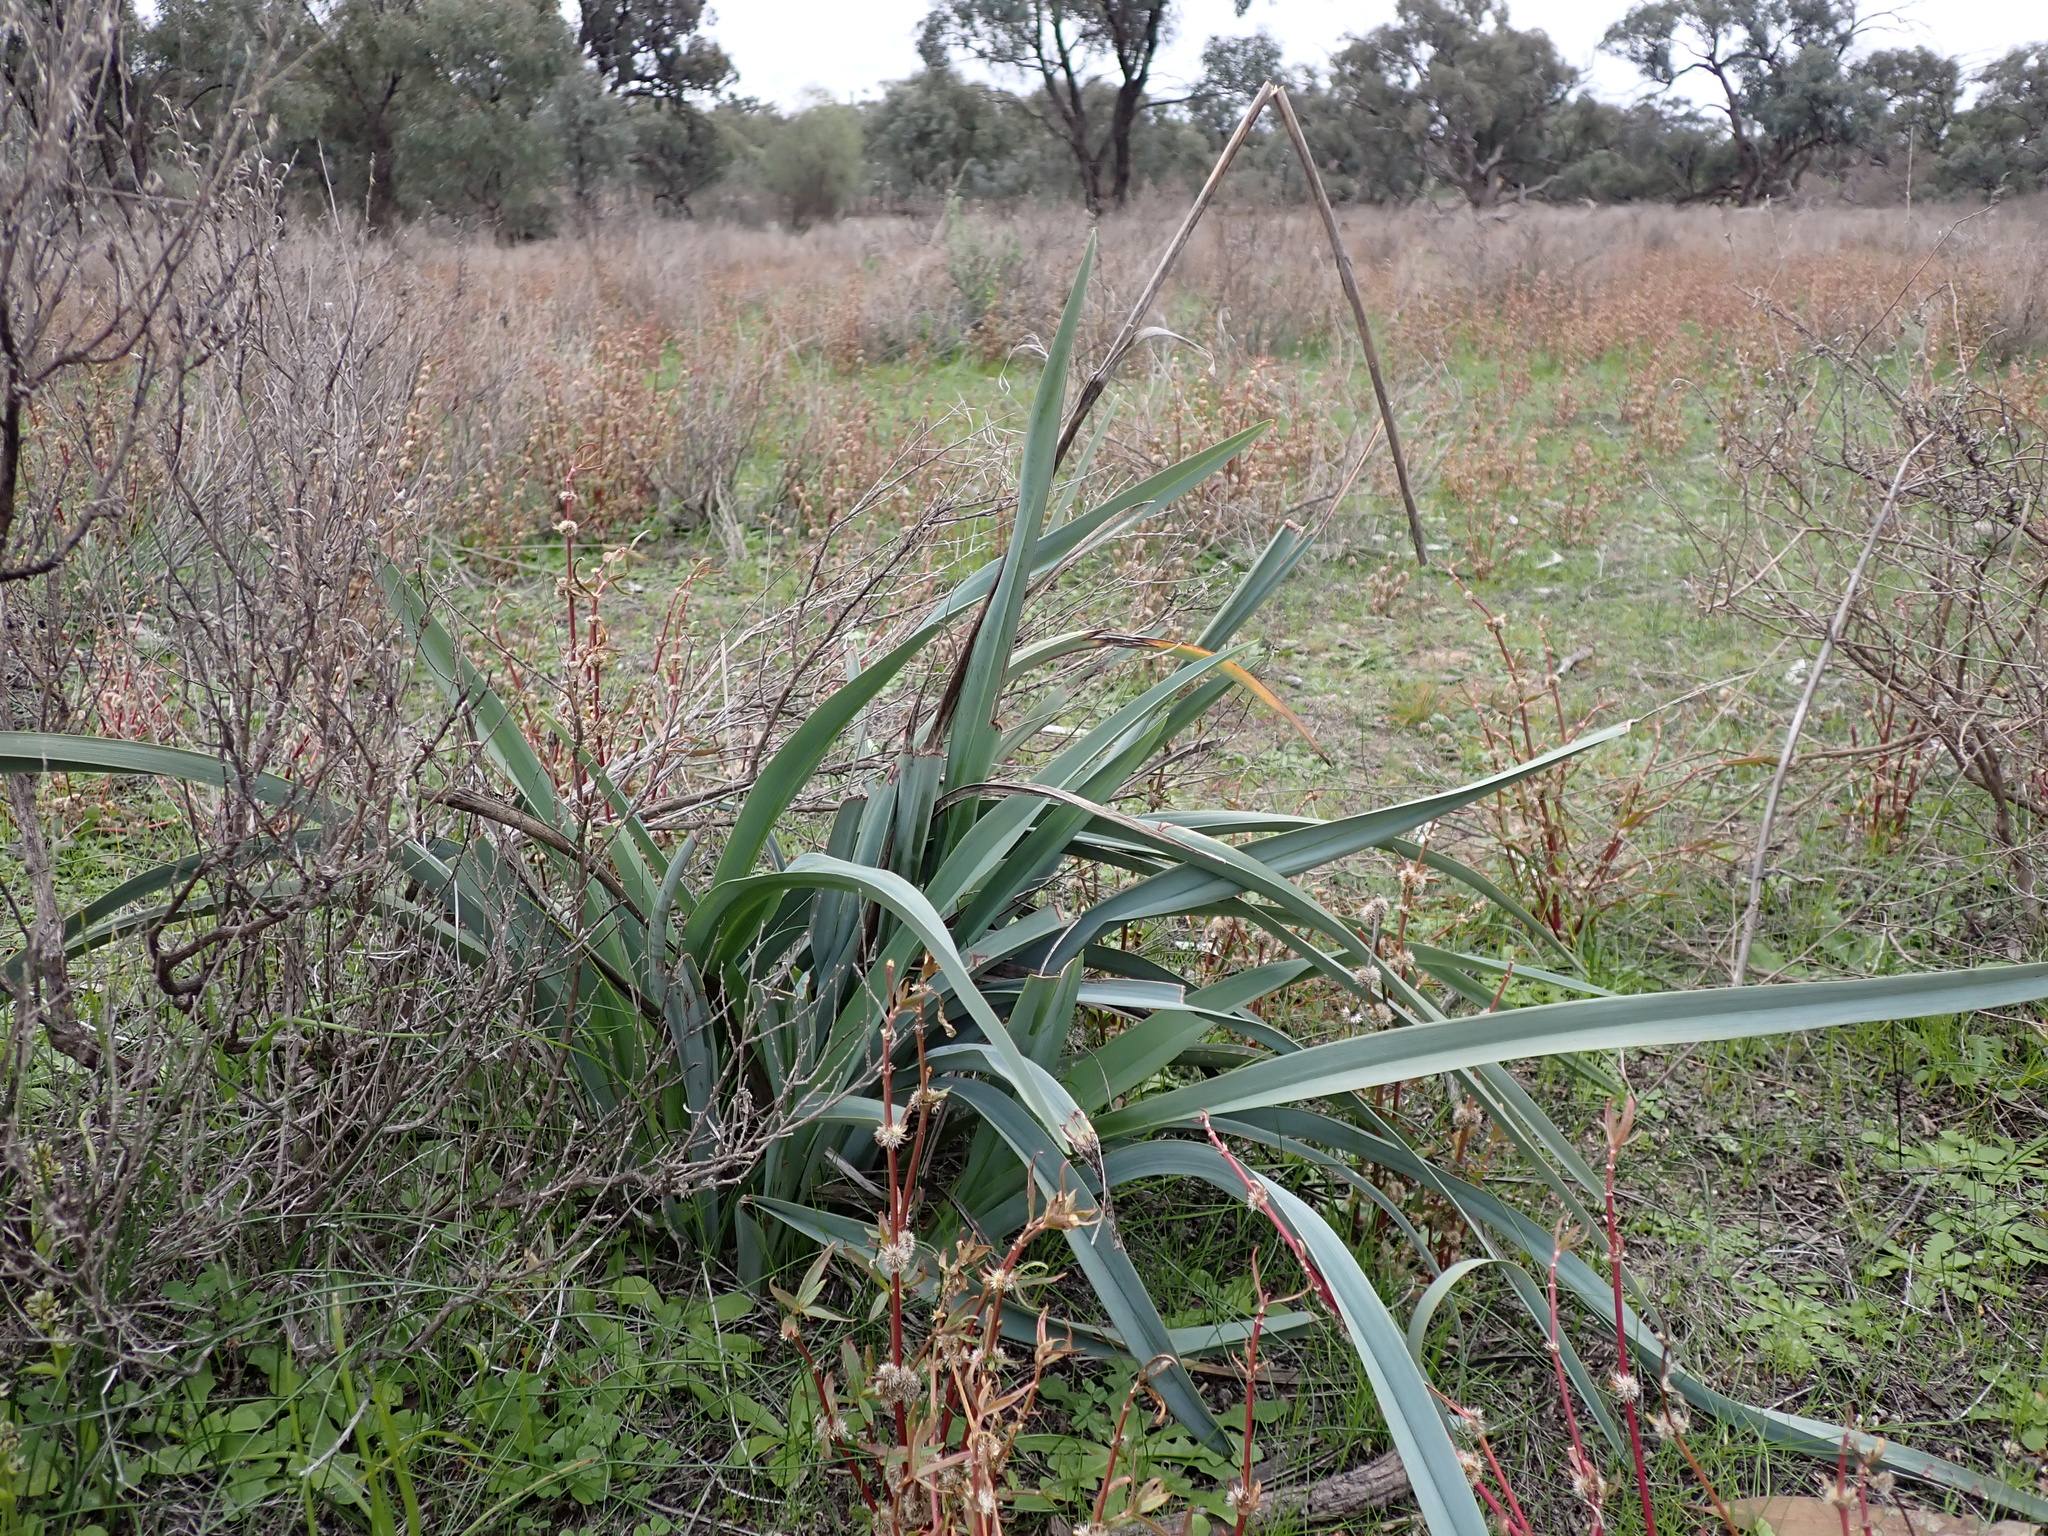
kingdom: Plantae
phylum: Tracheophyta
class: Liliopsida
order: Asparagales
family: Asphodelaceae
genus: Dianella
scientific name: Dianella porracea
